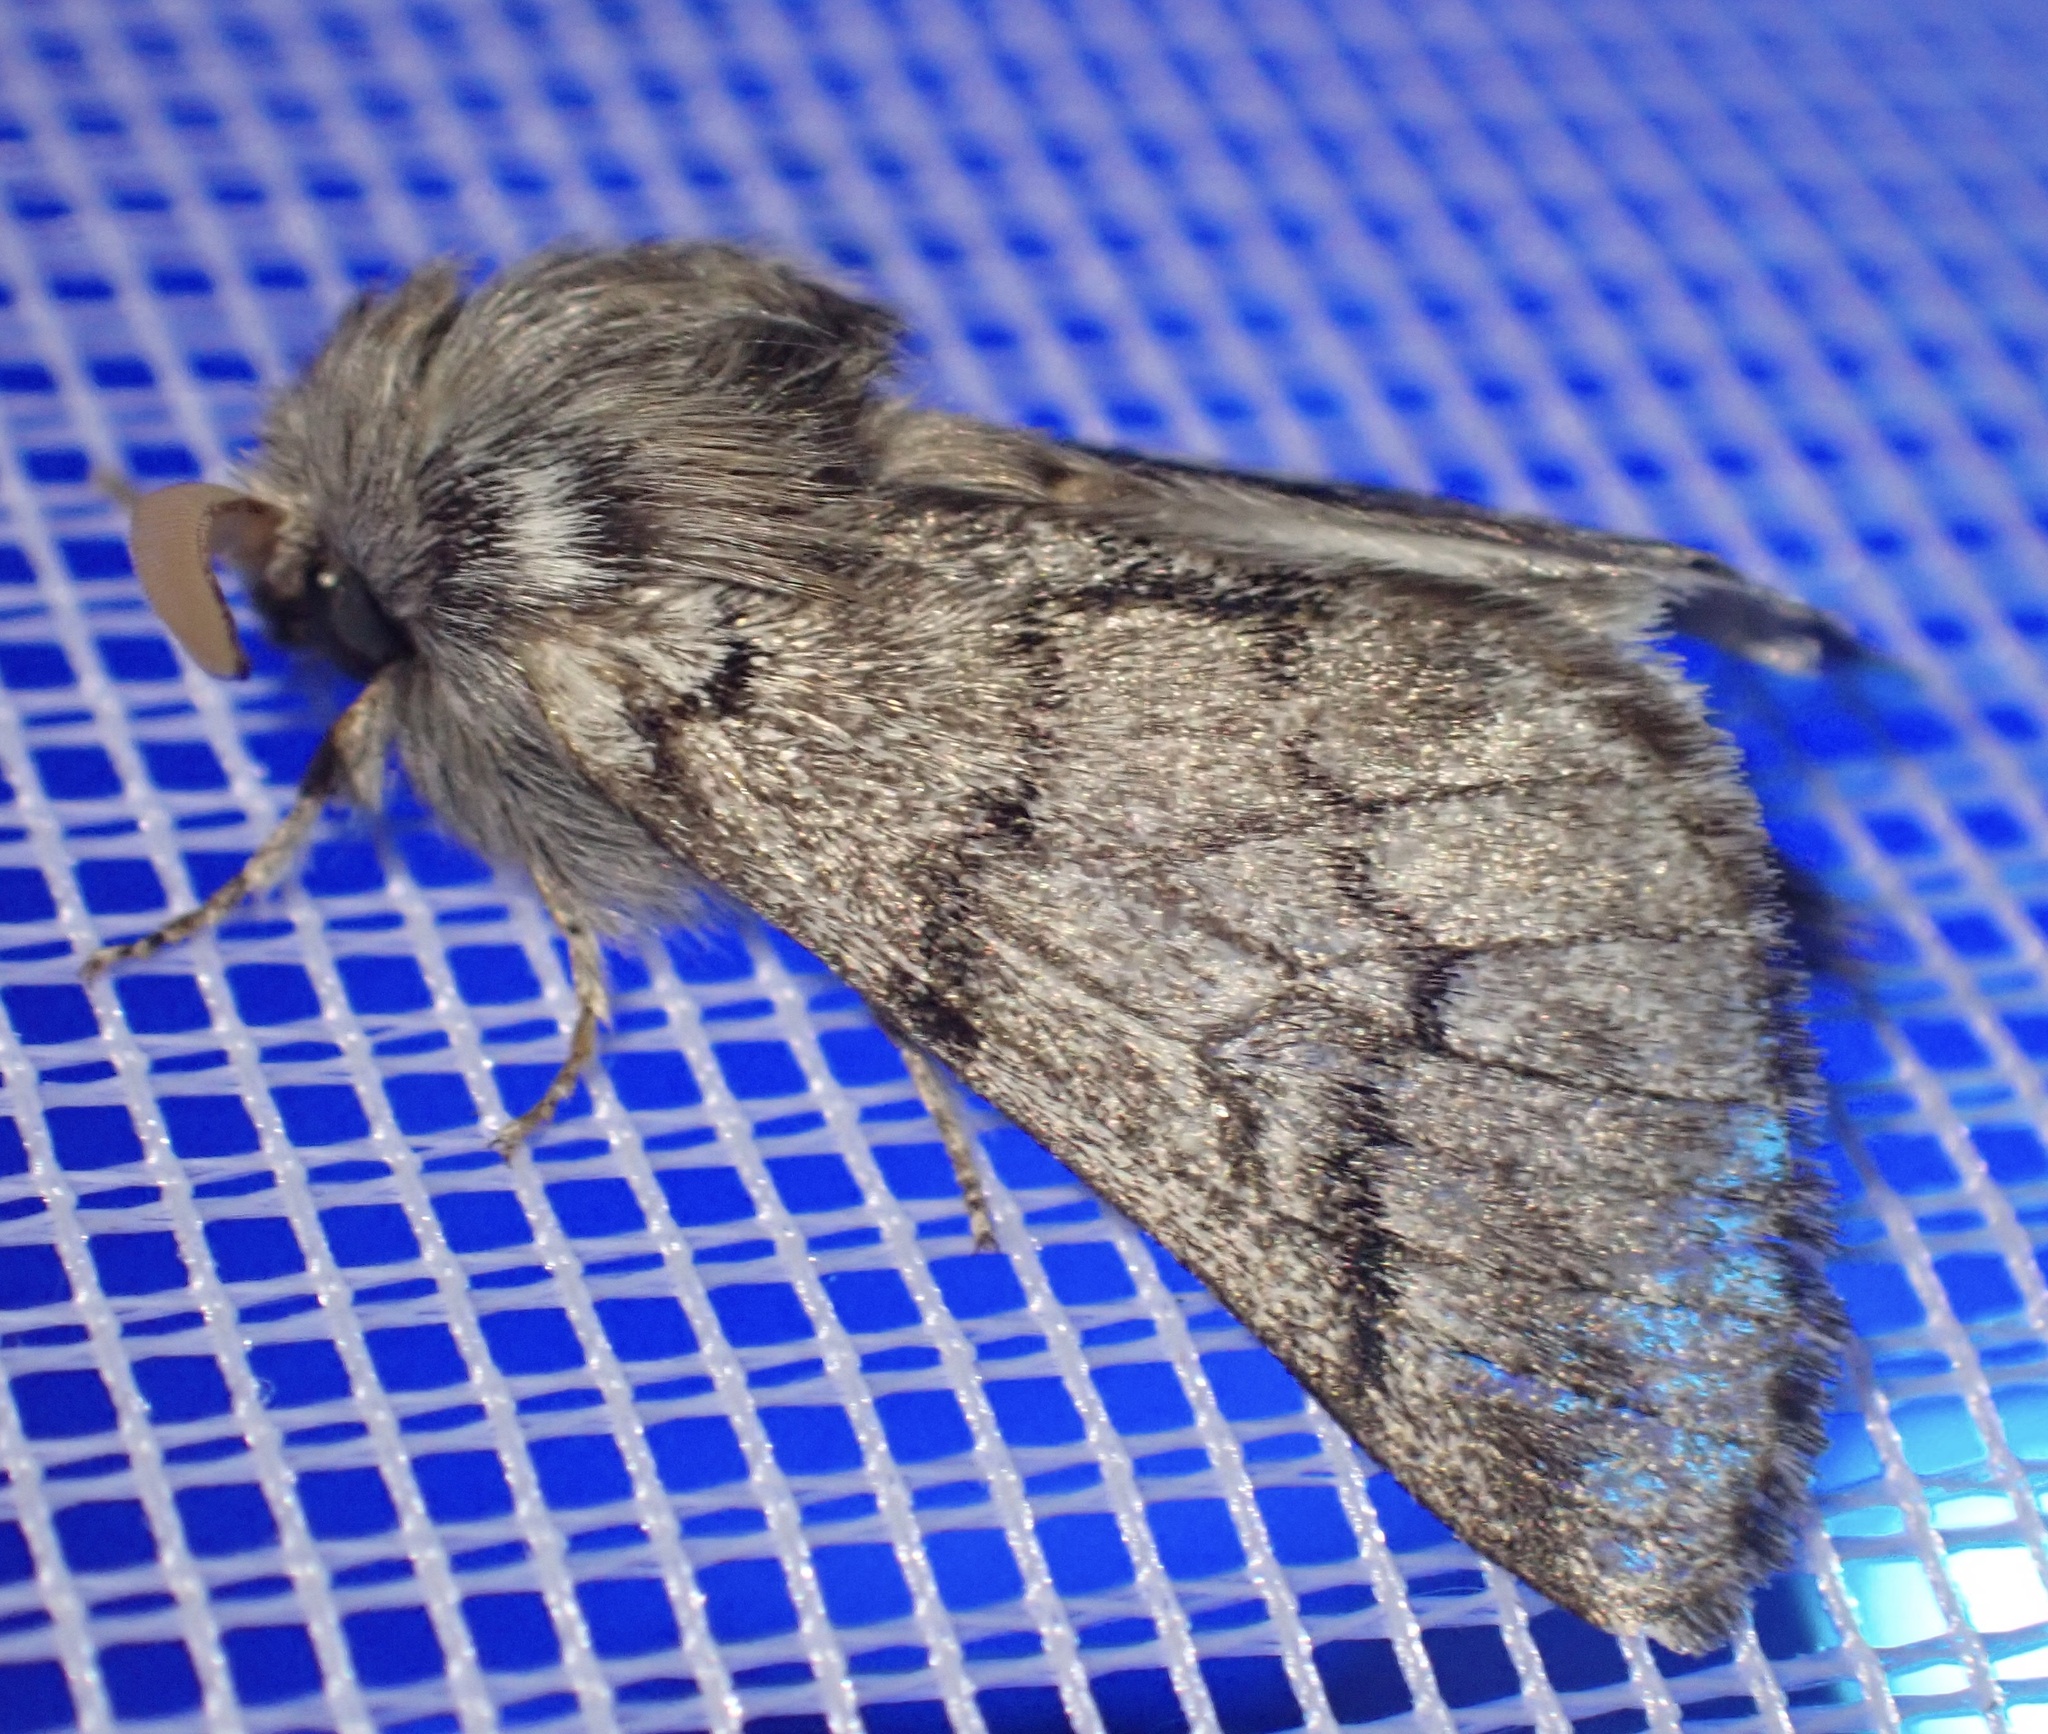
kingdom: Animalia
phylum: Arthropoda
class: Insecta
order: Lepidoptera
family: Notodontidae
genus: Thaumetopoea
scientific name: Thaumetopoea pityocampa
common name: Pine processionary
